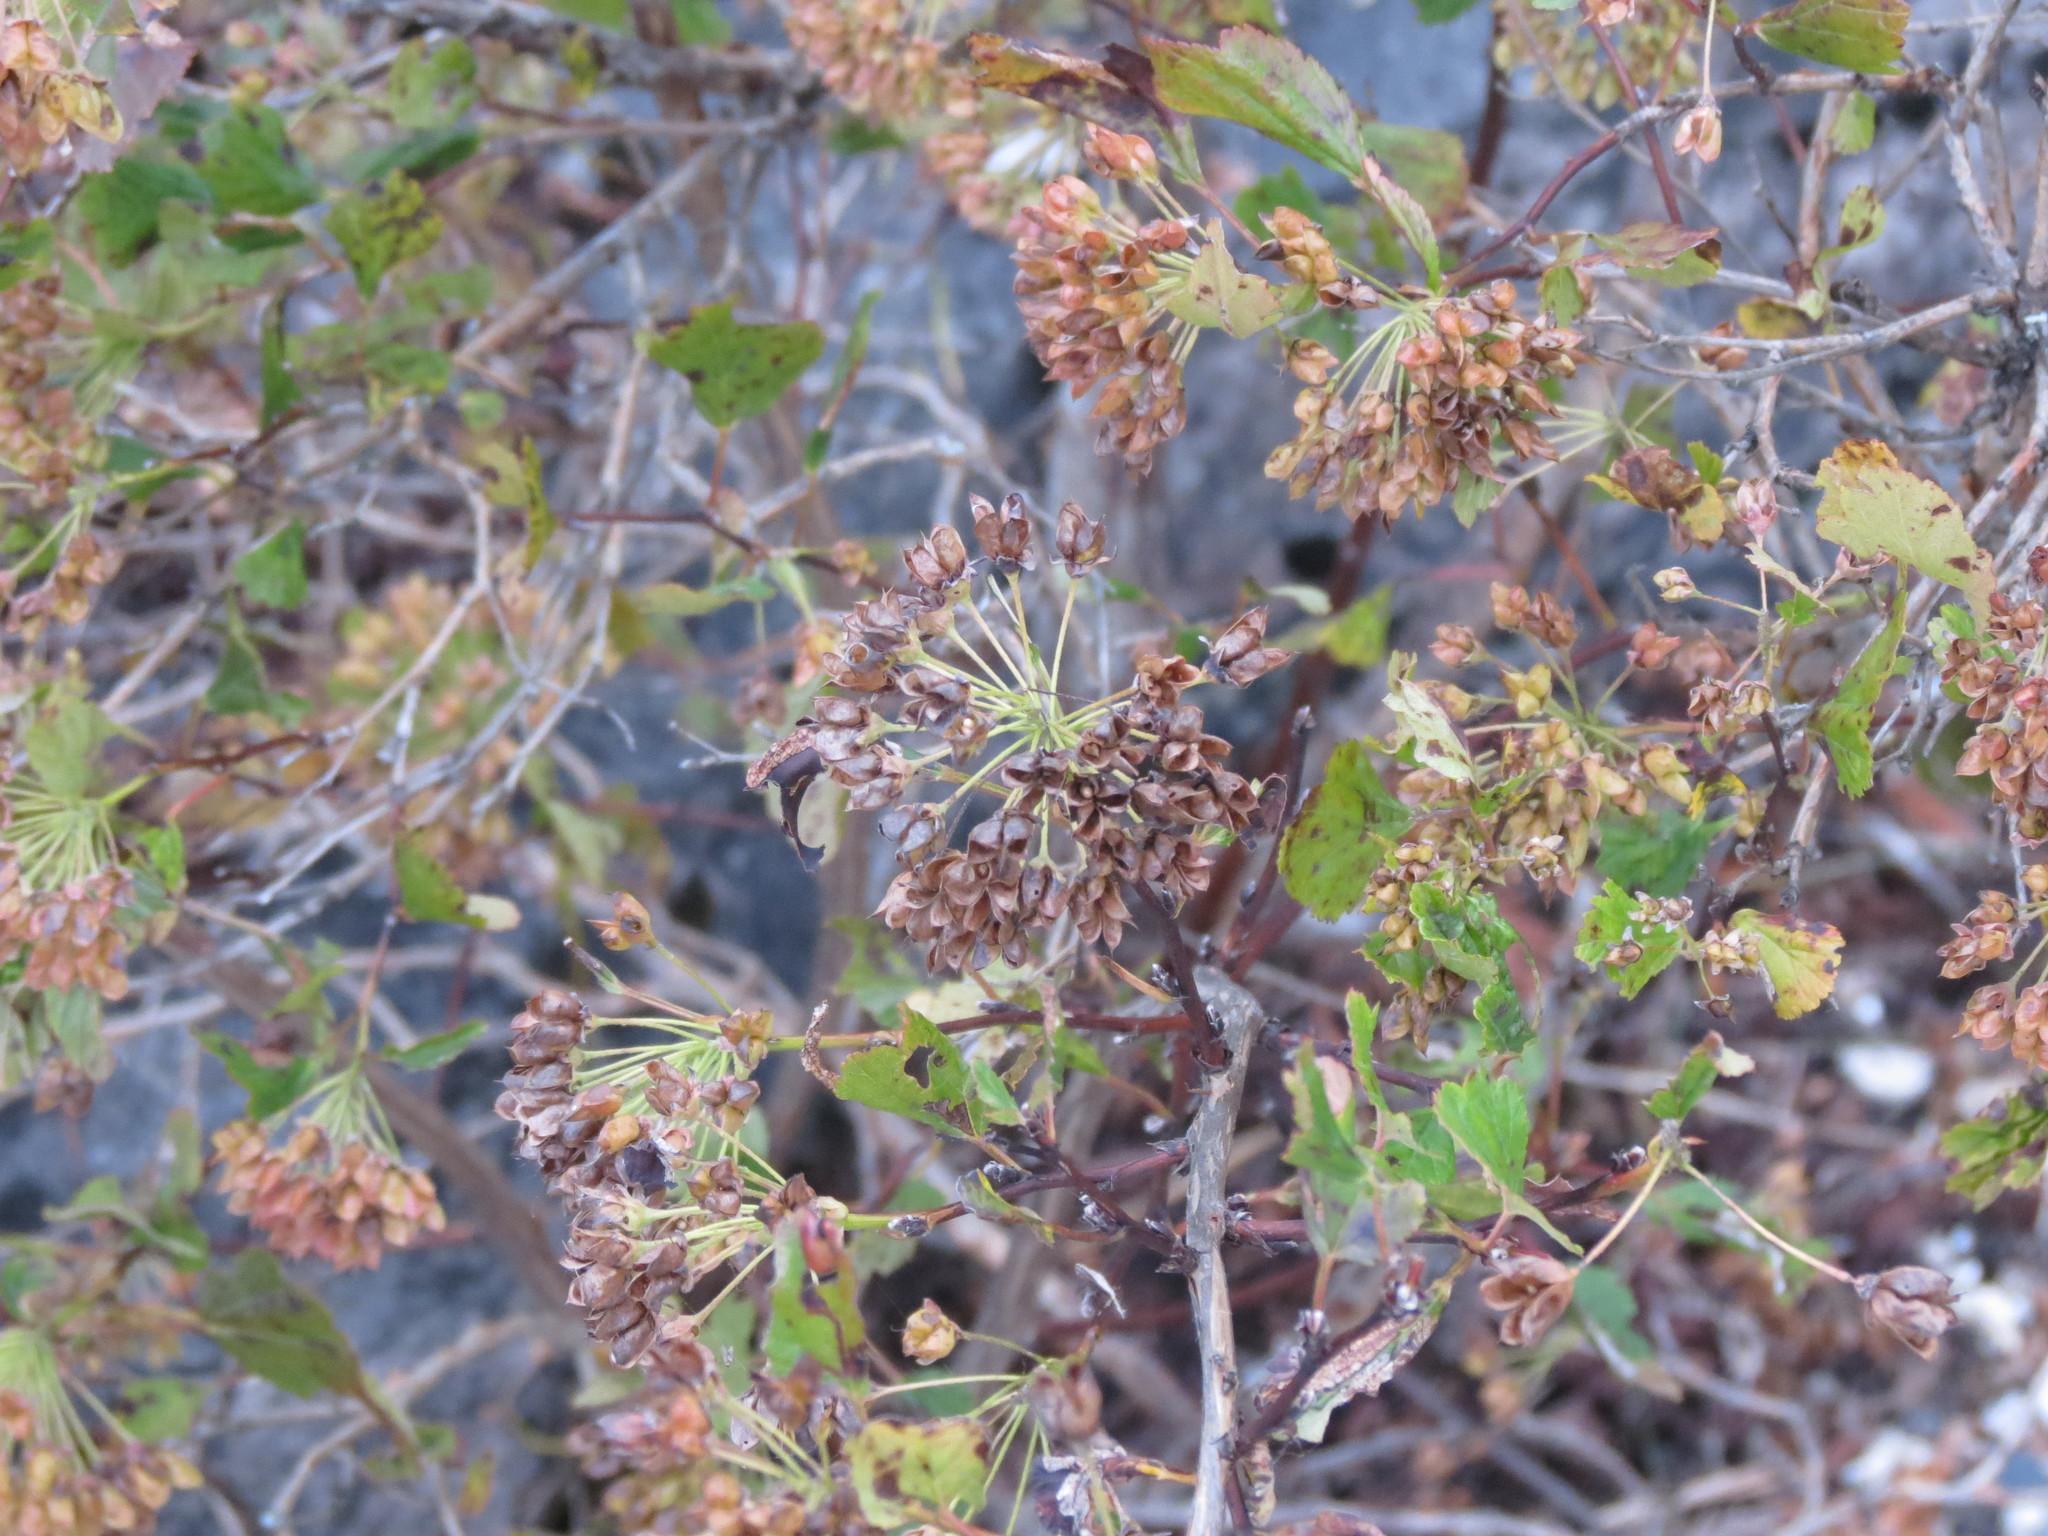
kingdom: Plantae
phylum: Tracheophyta
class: Magnoliopsida
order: Rosales
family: Rosaceae
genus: Physocarpus
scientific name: Physocarpus opulifolius
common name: Ninebark
